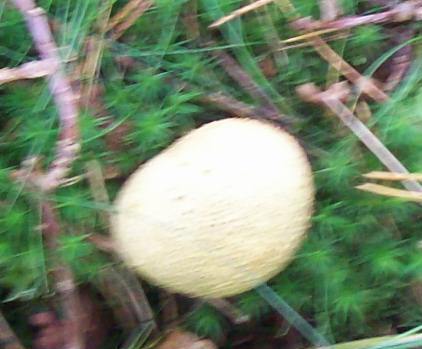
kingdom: Fungi
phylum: Basidiomycota
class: Agaricomycetes
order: Boletales
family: Sclerodermataceae
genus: Scleroderma
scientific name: Scleroderma citrinum
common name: Common earthball
